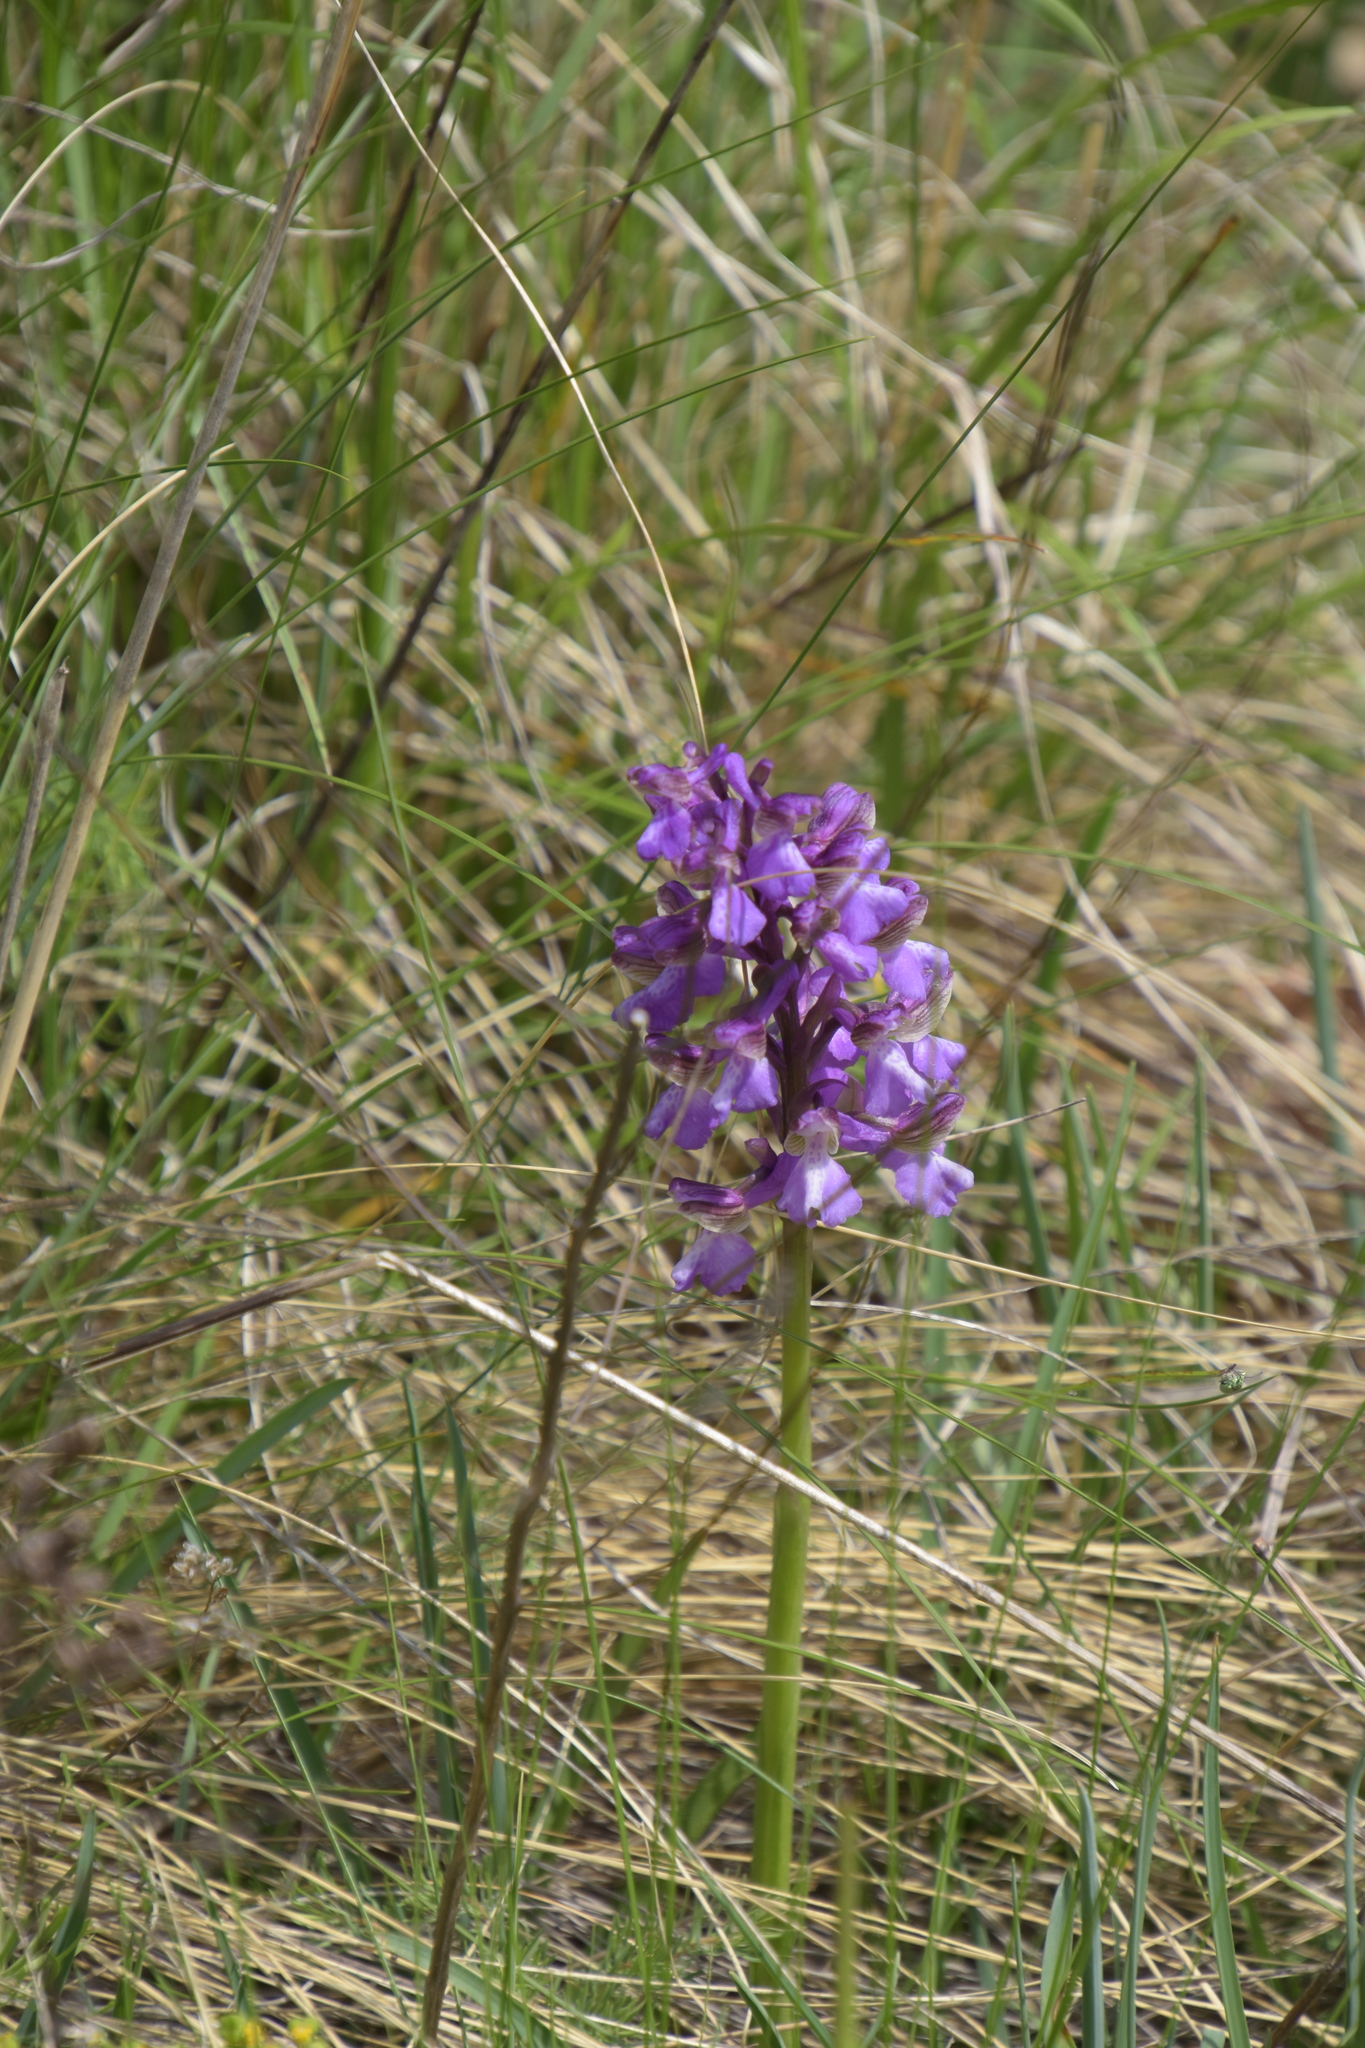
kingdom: Plantae
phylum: Tracheophyta
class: Liliopsida
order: Asparagales
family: Orchidaceae
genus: Anacamptis
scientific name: Anacamptis morio
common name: Green-winged orchid
